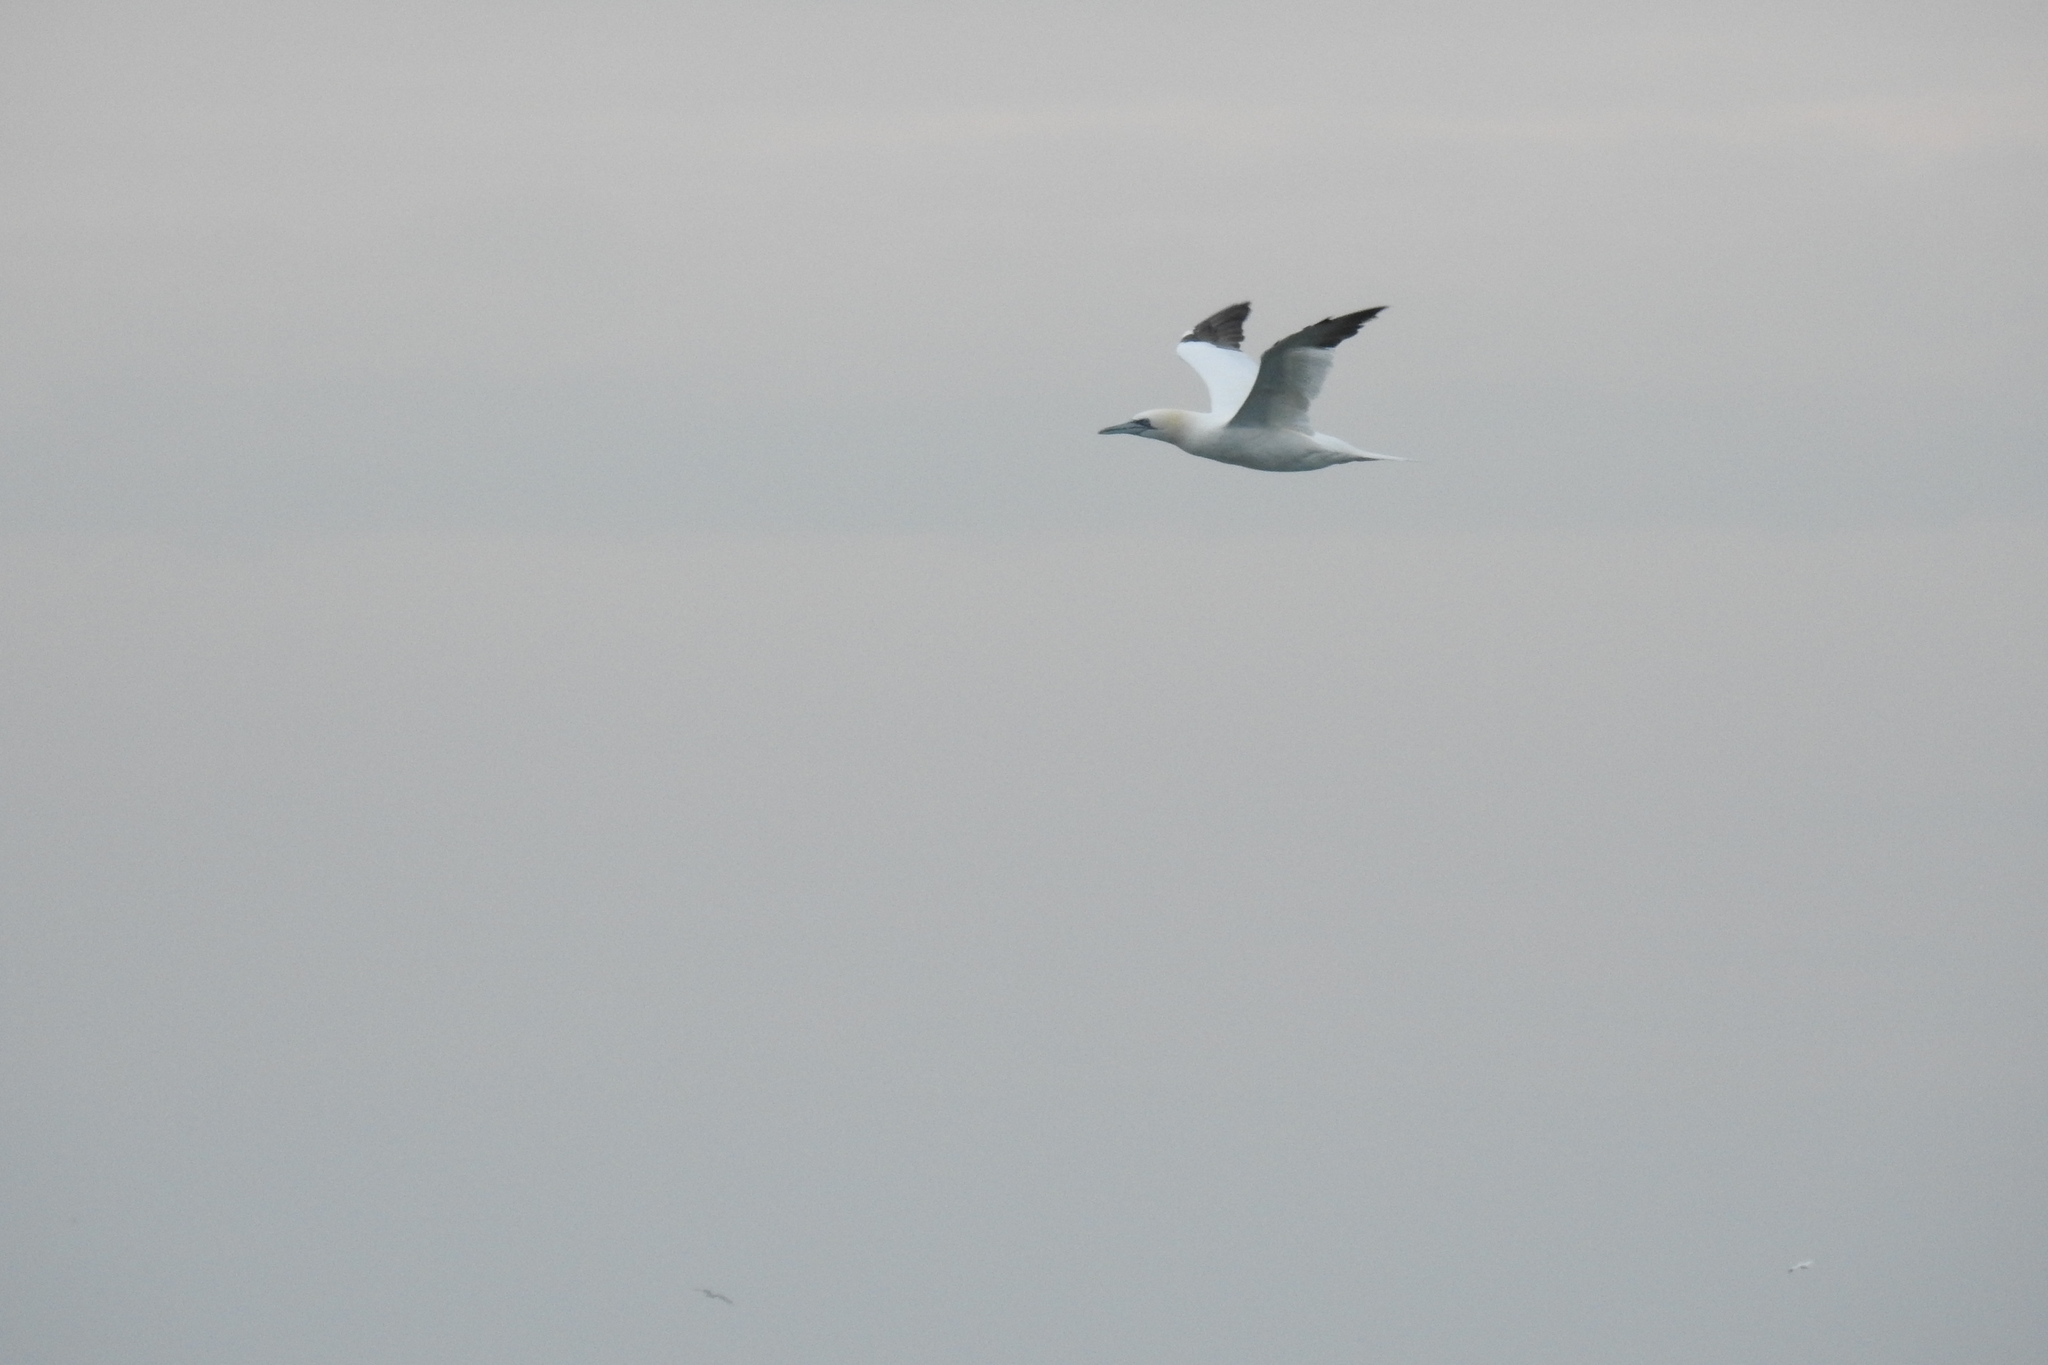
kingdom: Animalia
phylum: Chordata
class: Aves
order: Suliformes
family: Sulidae
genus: Morus
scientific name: Morus bassanus
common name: Northern gannet
